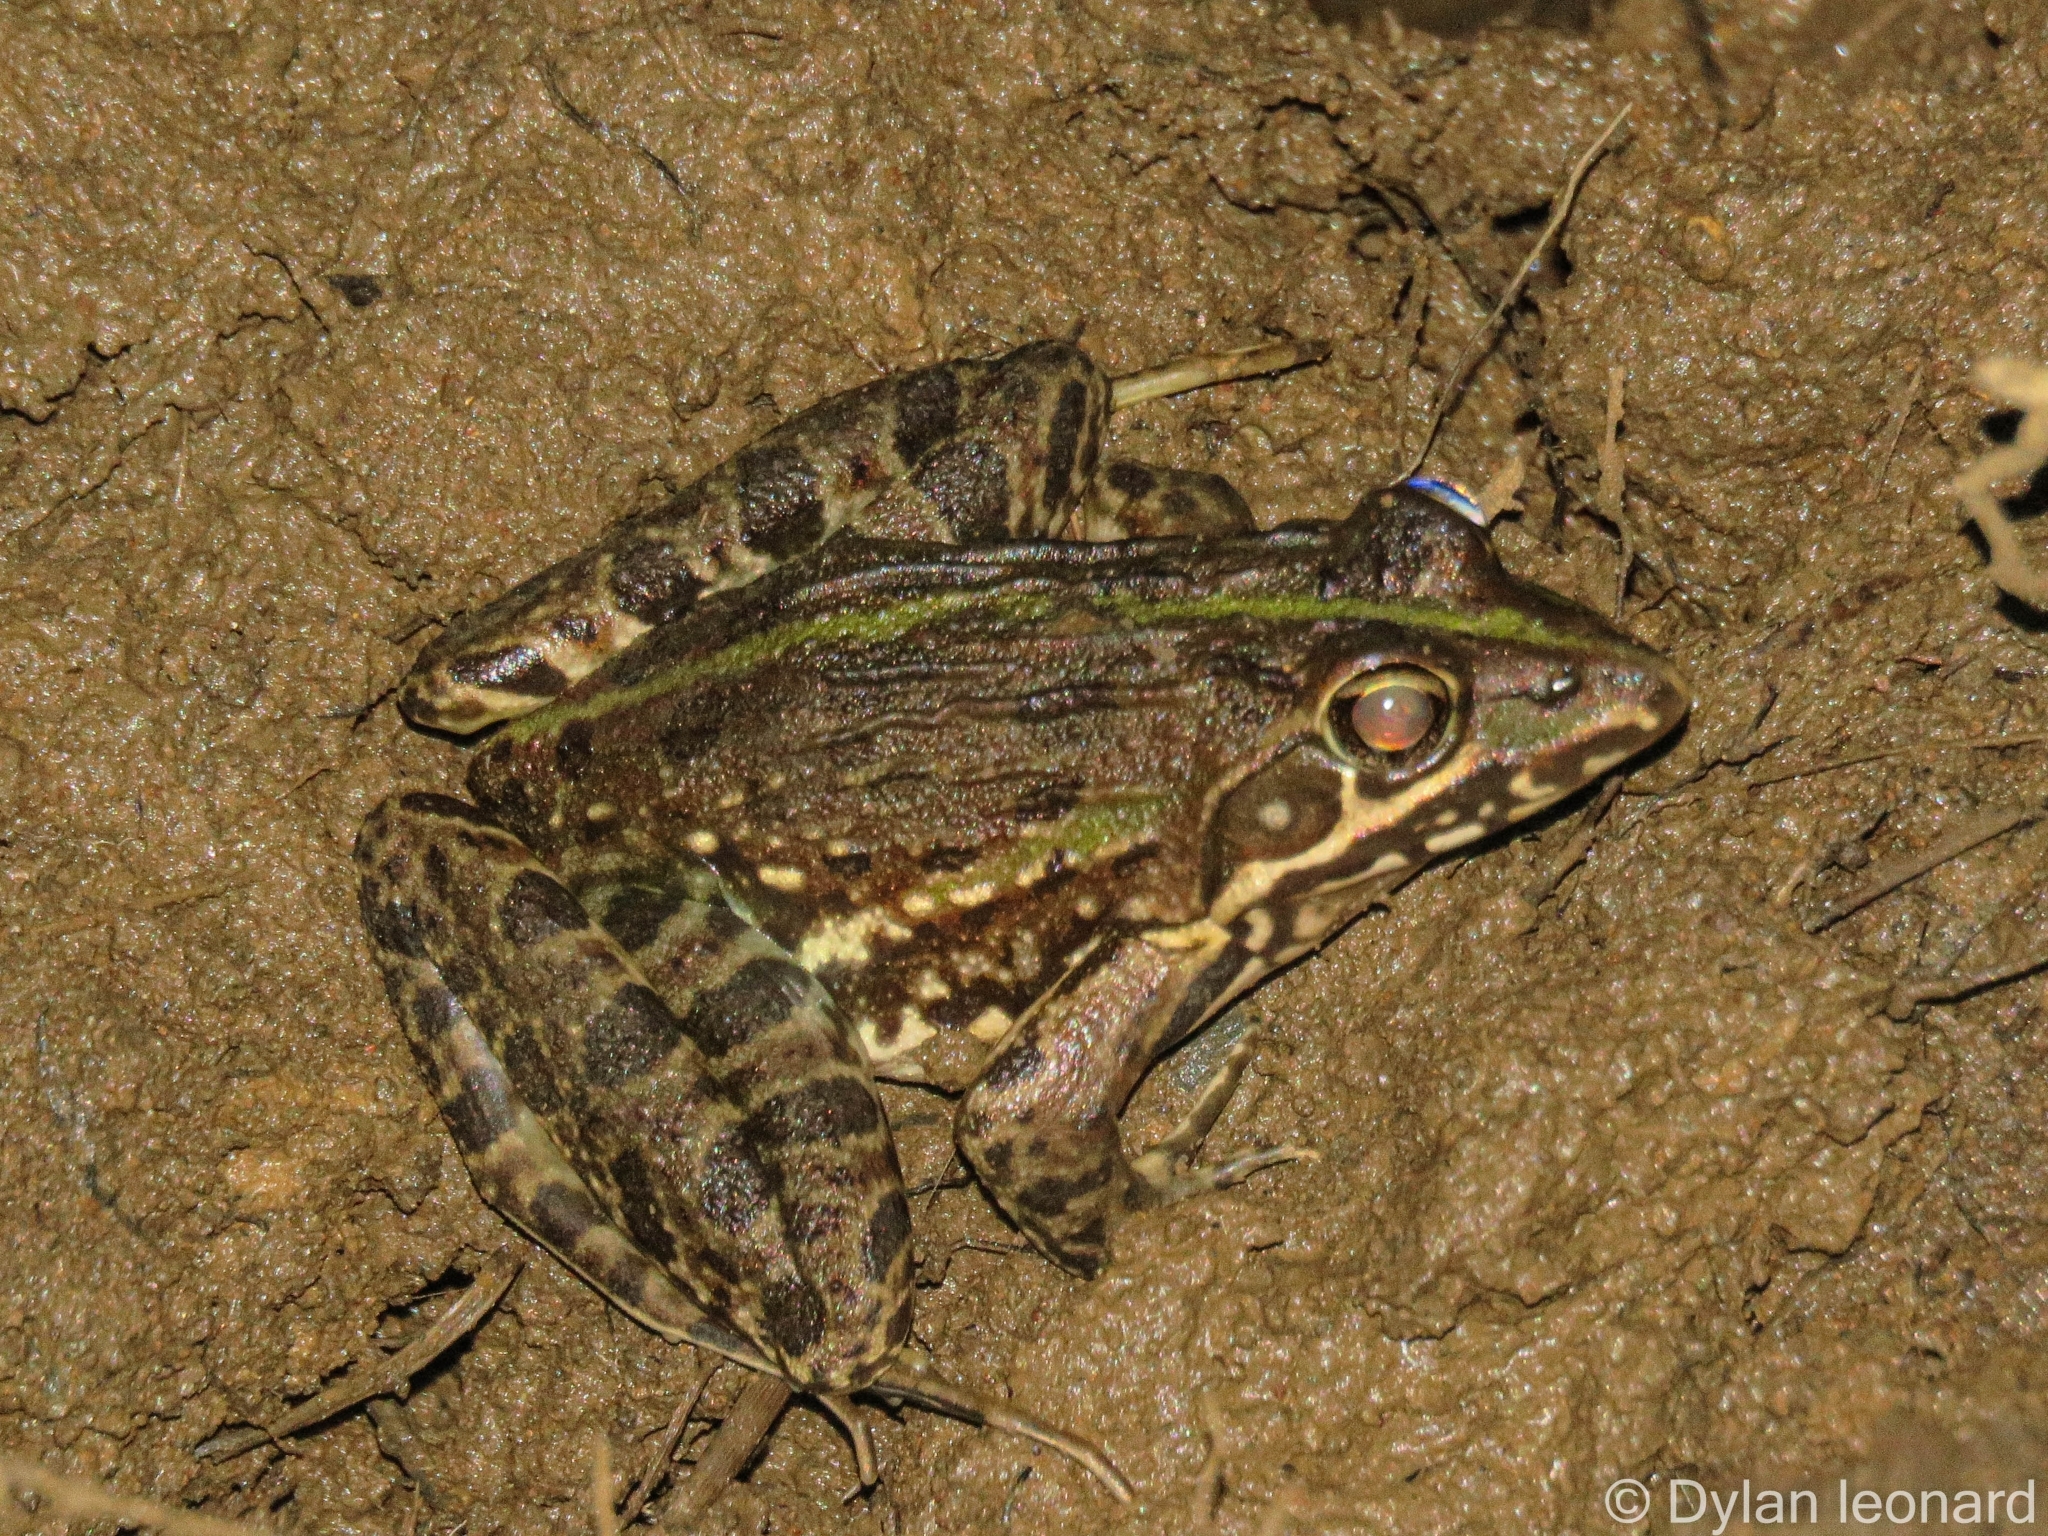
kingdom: Animalia
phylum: Chordata
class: Amphibia
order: Anura
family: Pyxicephalidae
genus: Amietia
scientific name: Amietia delalandii
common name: Delalande's river frog
